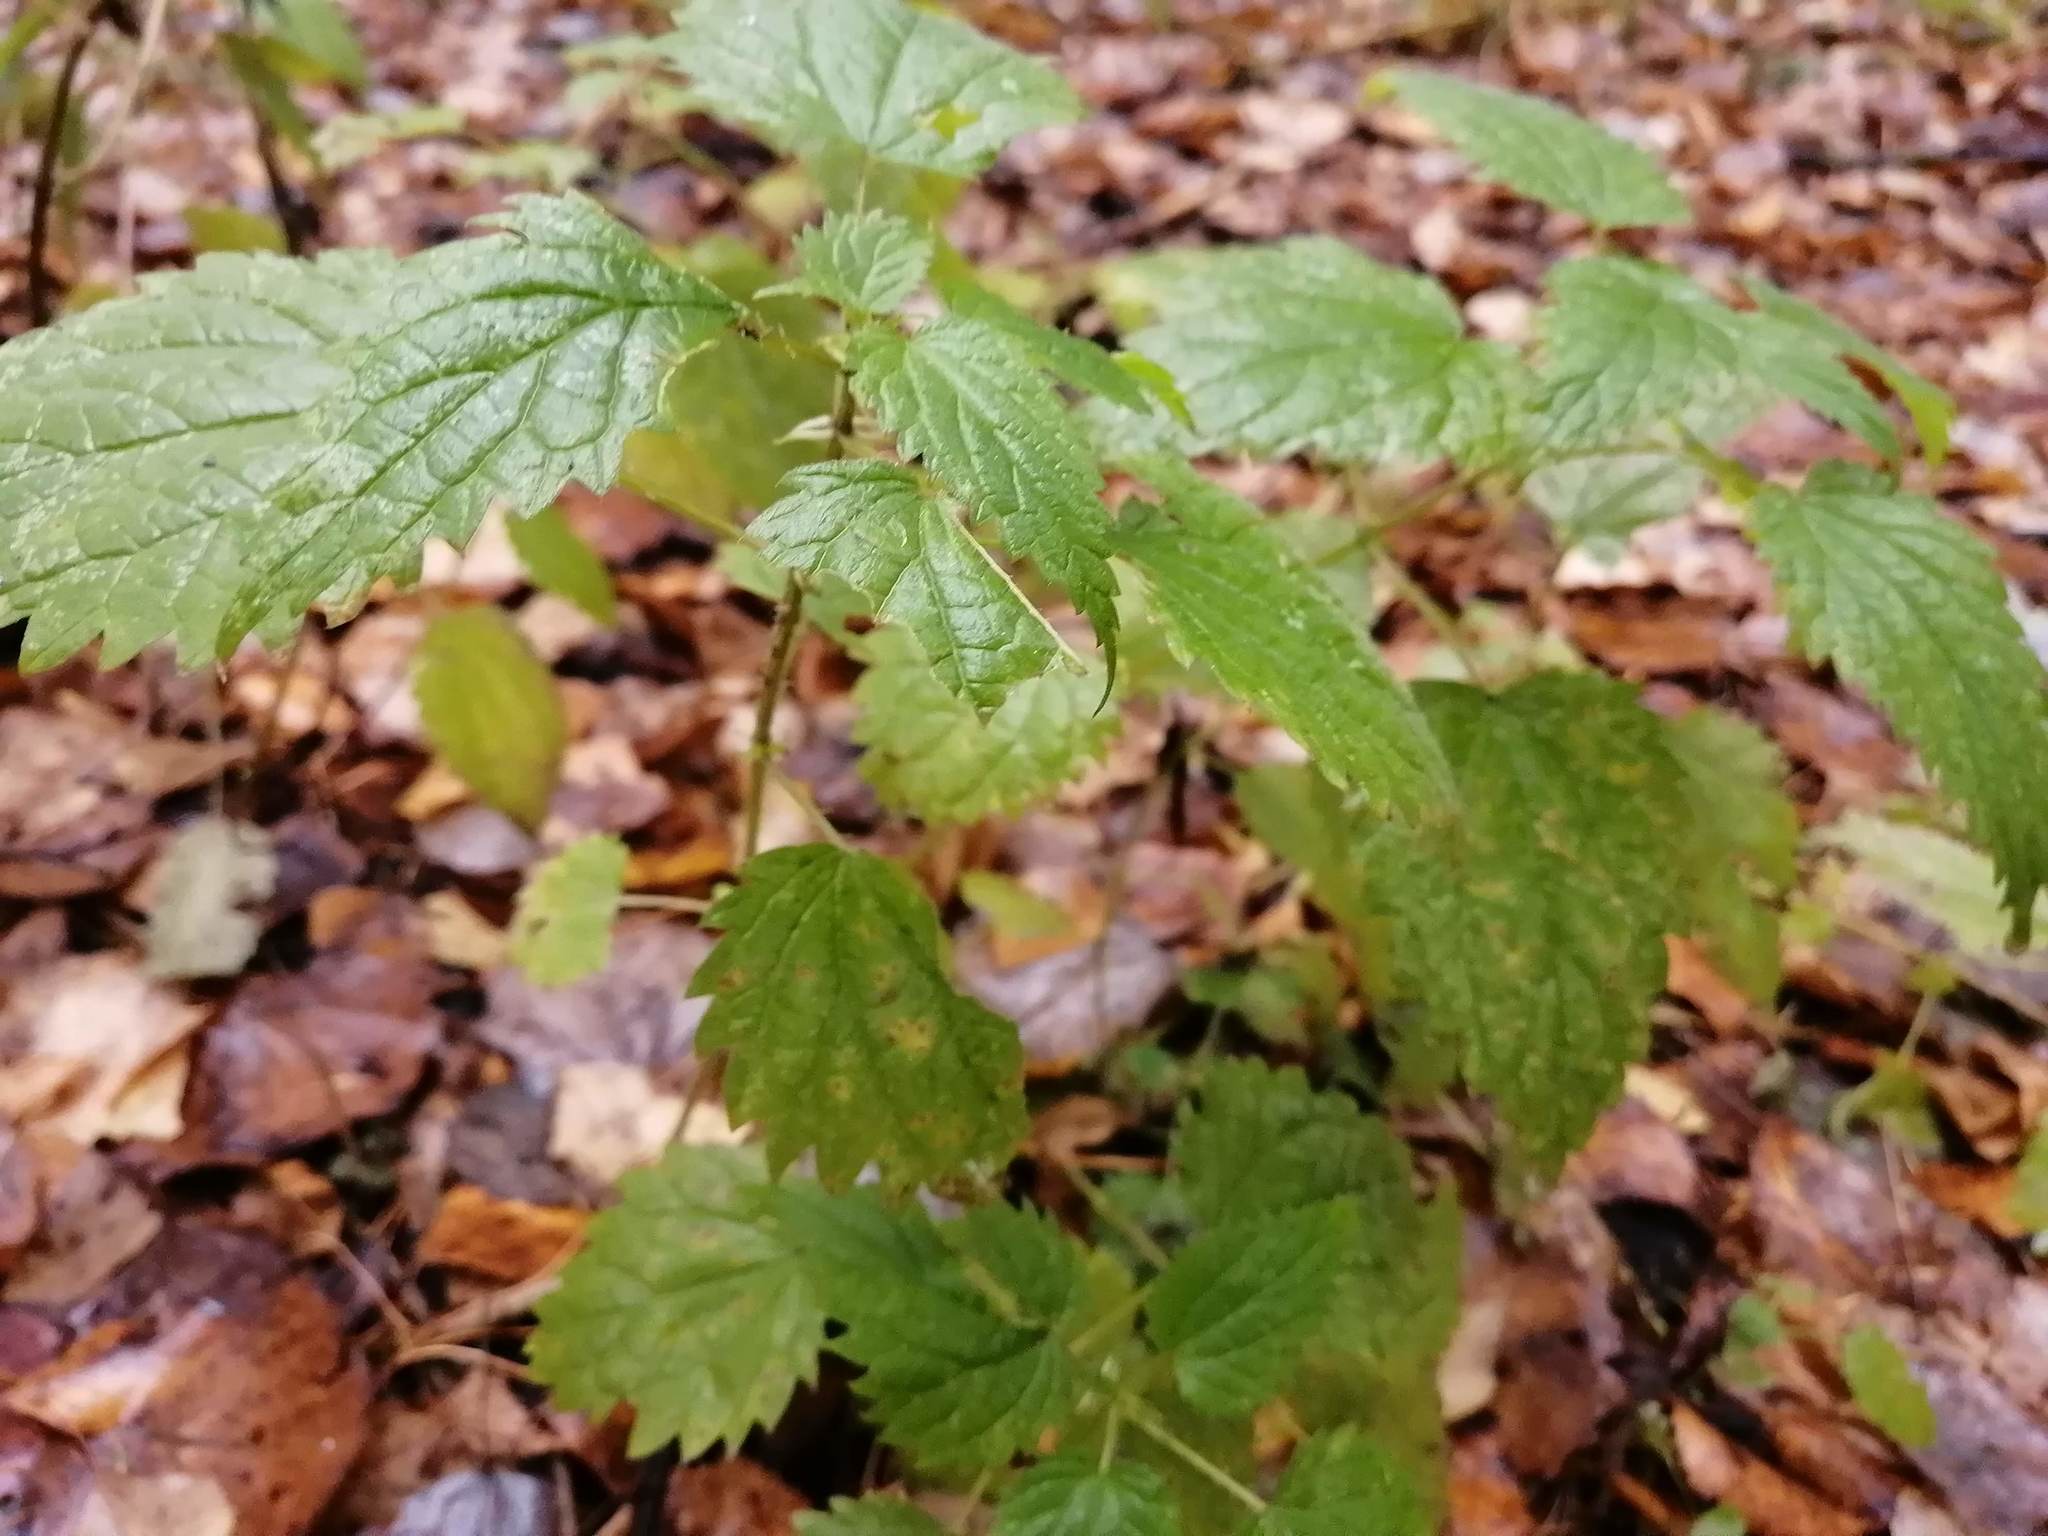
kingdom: Plantae
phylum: Tracheophyta
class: Magnoliopsida
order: Rosales
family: Urticaceae
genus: Urtica
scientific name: Urtica dioica
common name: Common nettle
